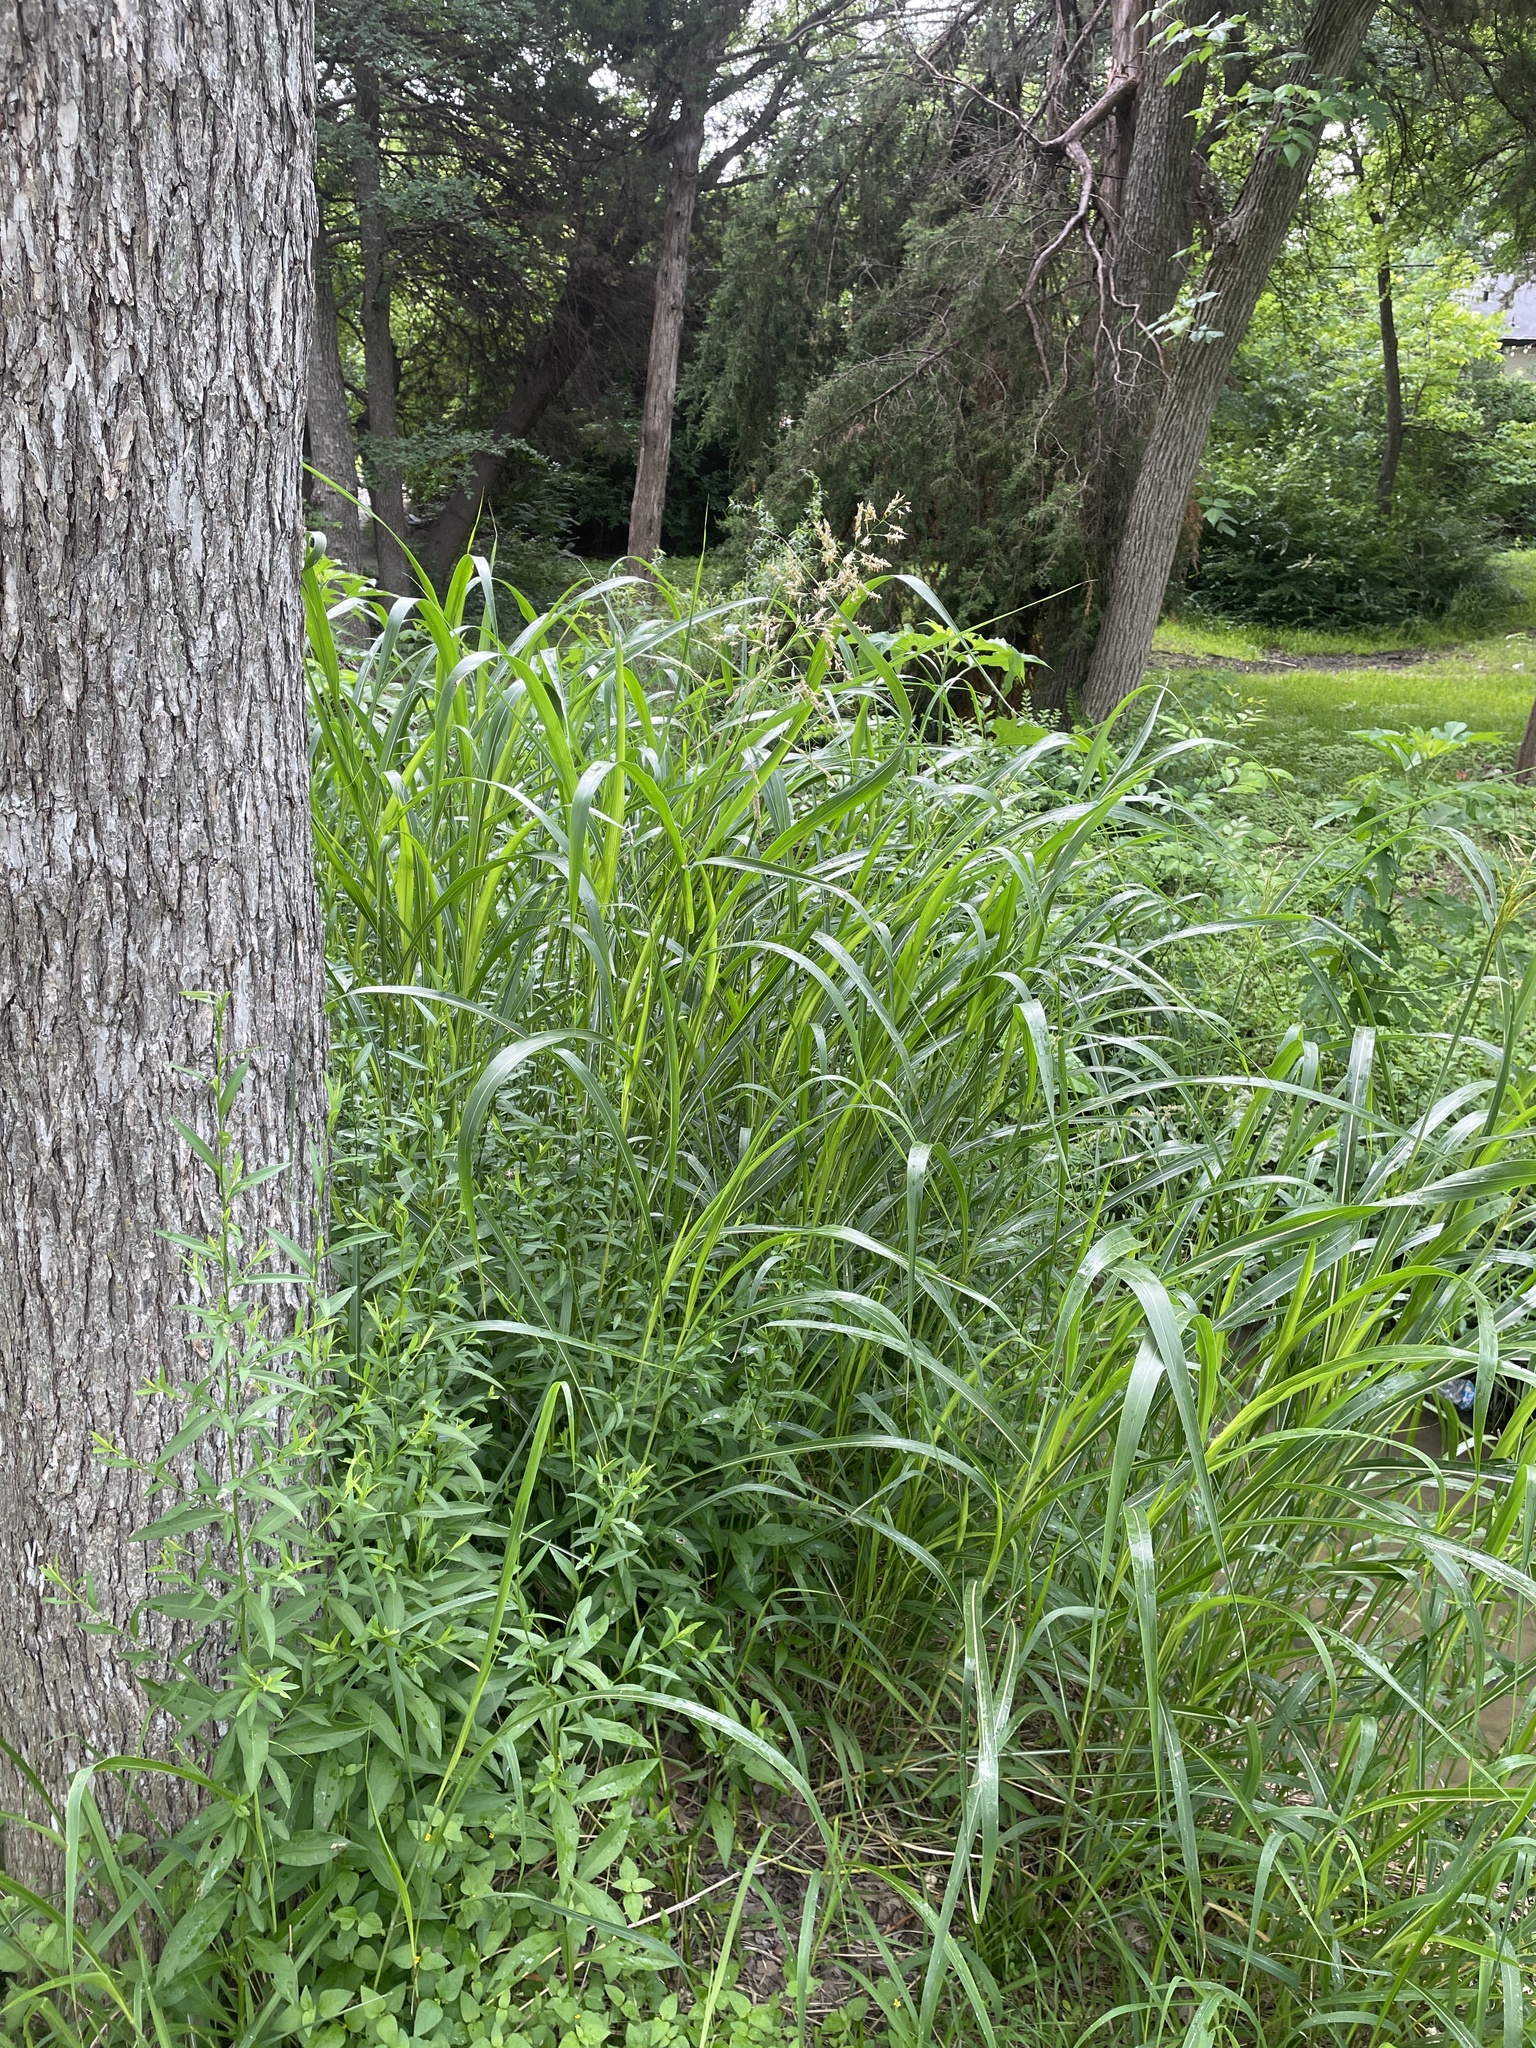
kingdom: Plantae
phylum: Tracheophyta
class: Liliopsida
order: Poales
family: Poaceae
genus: Sorghum
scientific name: Sorghum halepense
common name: Johnson-grass
